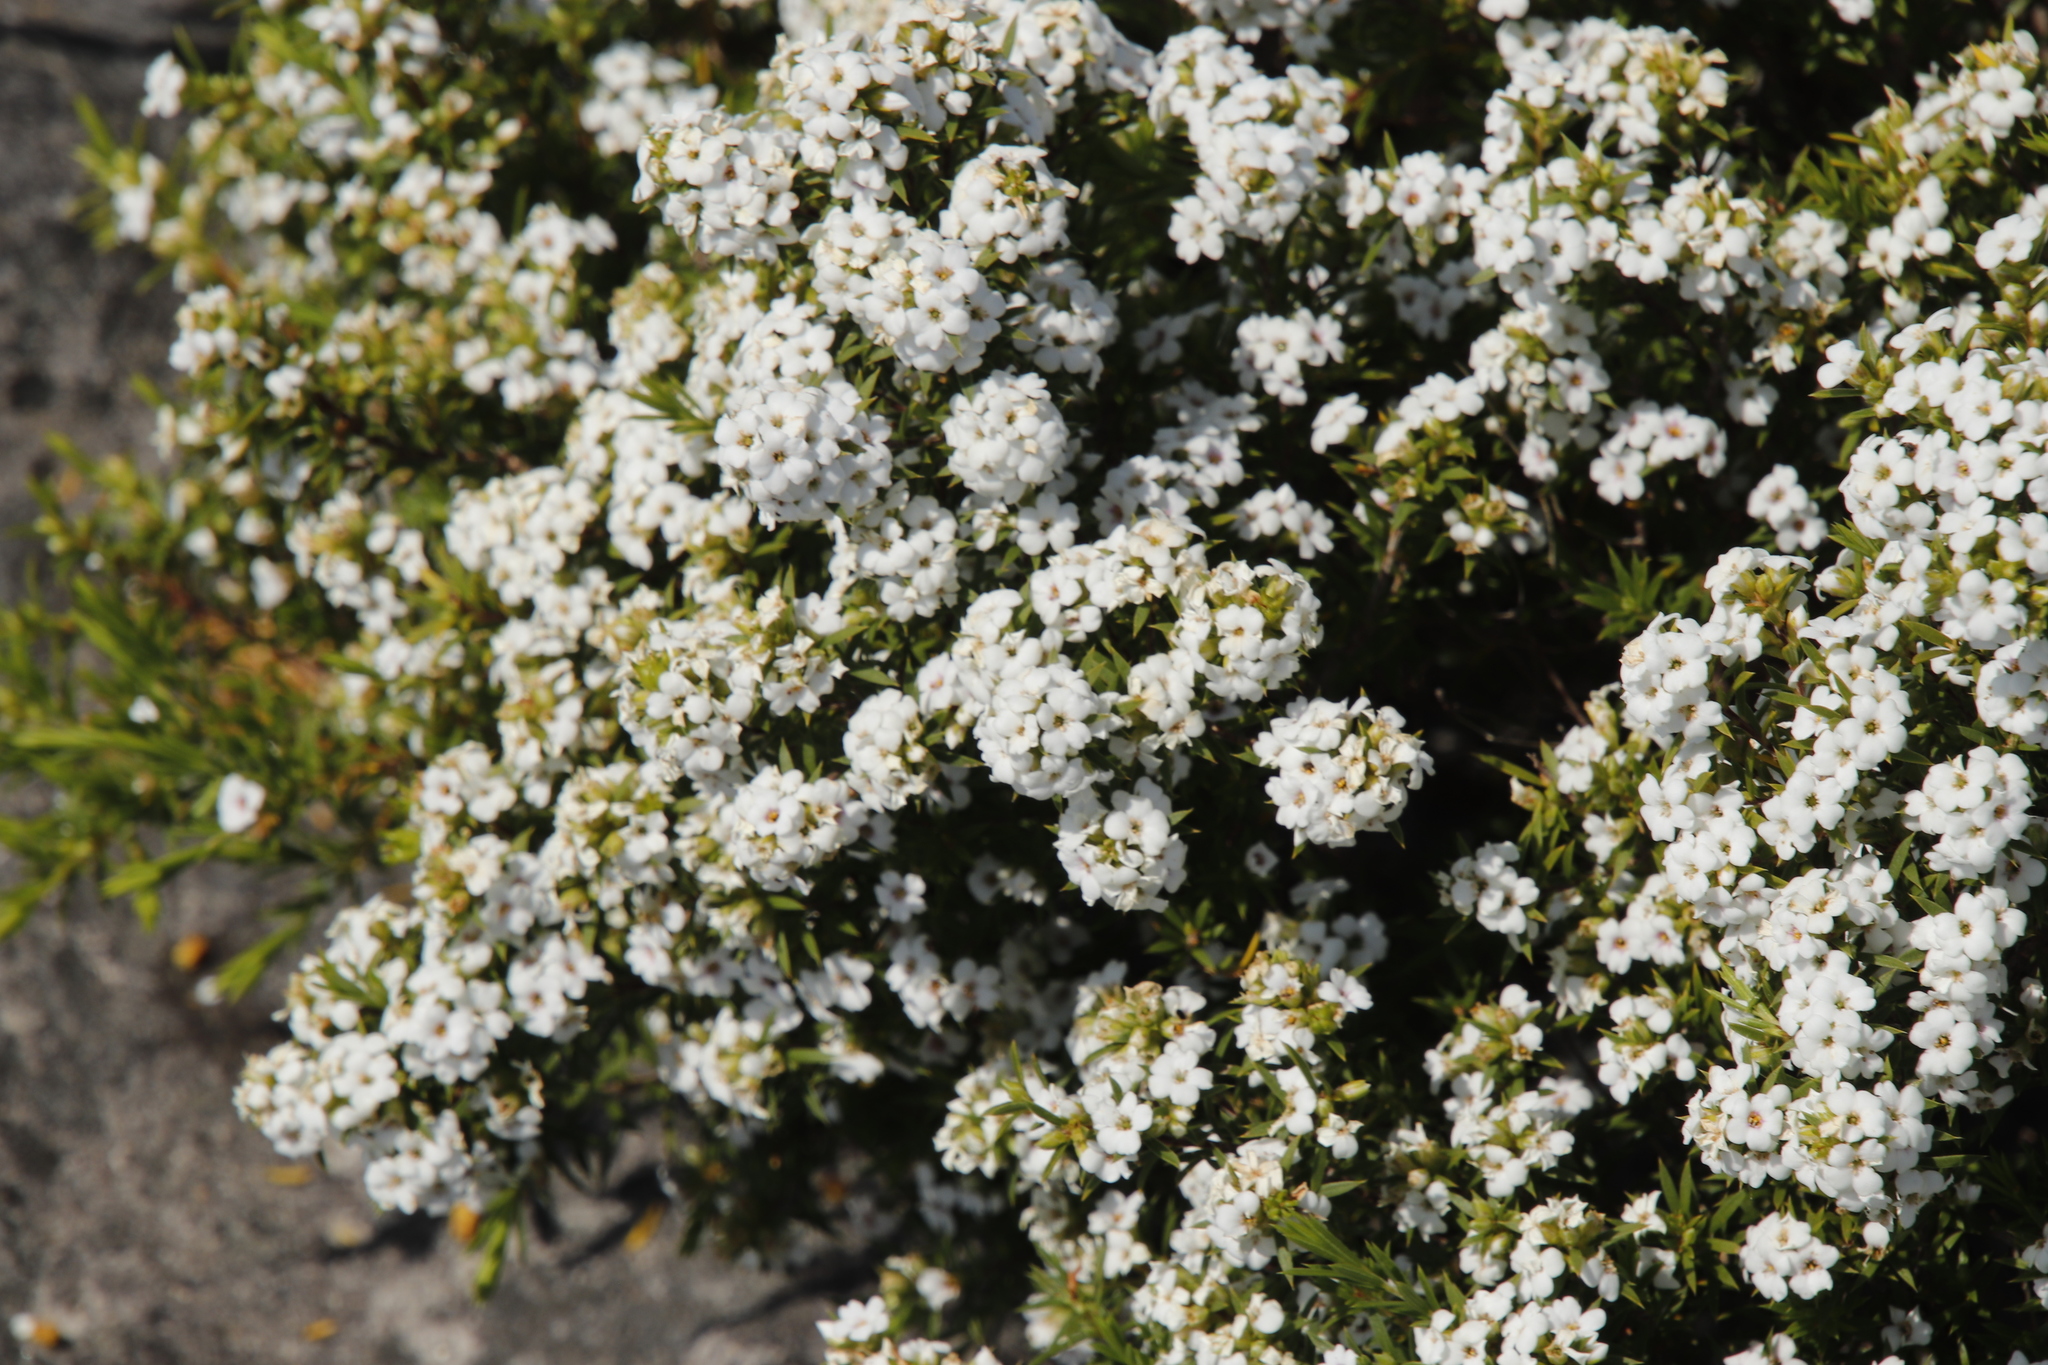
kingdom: Plantae
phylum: Tracheophyta
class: Magnoliopsida
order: Sapindales
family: Rutaceae
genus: Coleonema
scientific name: Coleonema album
